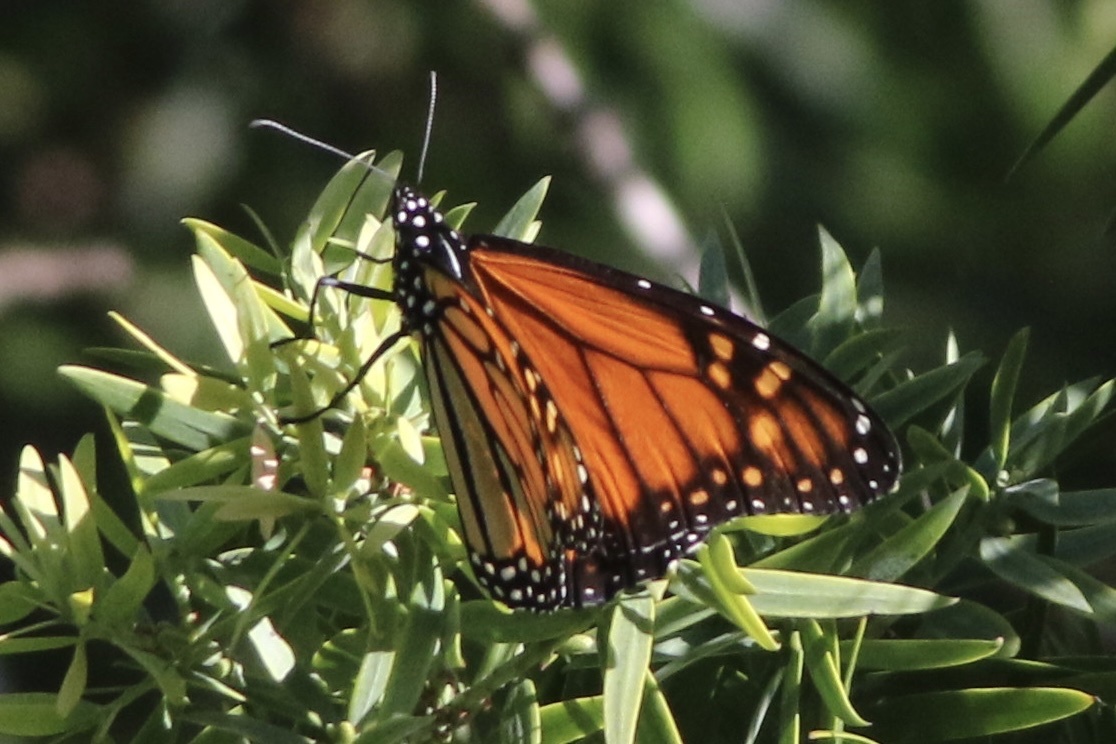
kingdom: Animalia
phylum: Arthropoda
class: Insecta
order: Lepidoptera
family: Nymphalidae
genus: Danaus
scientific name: Danaus plexippus
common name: Monarch
